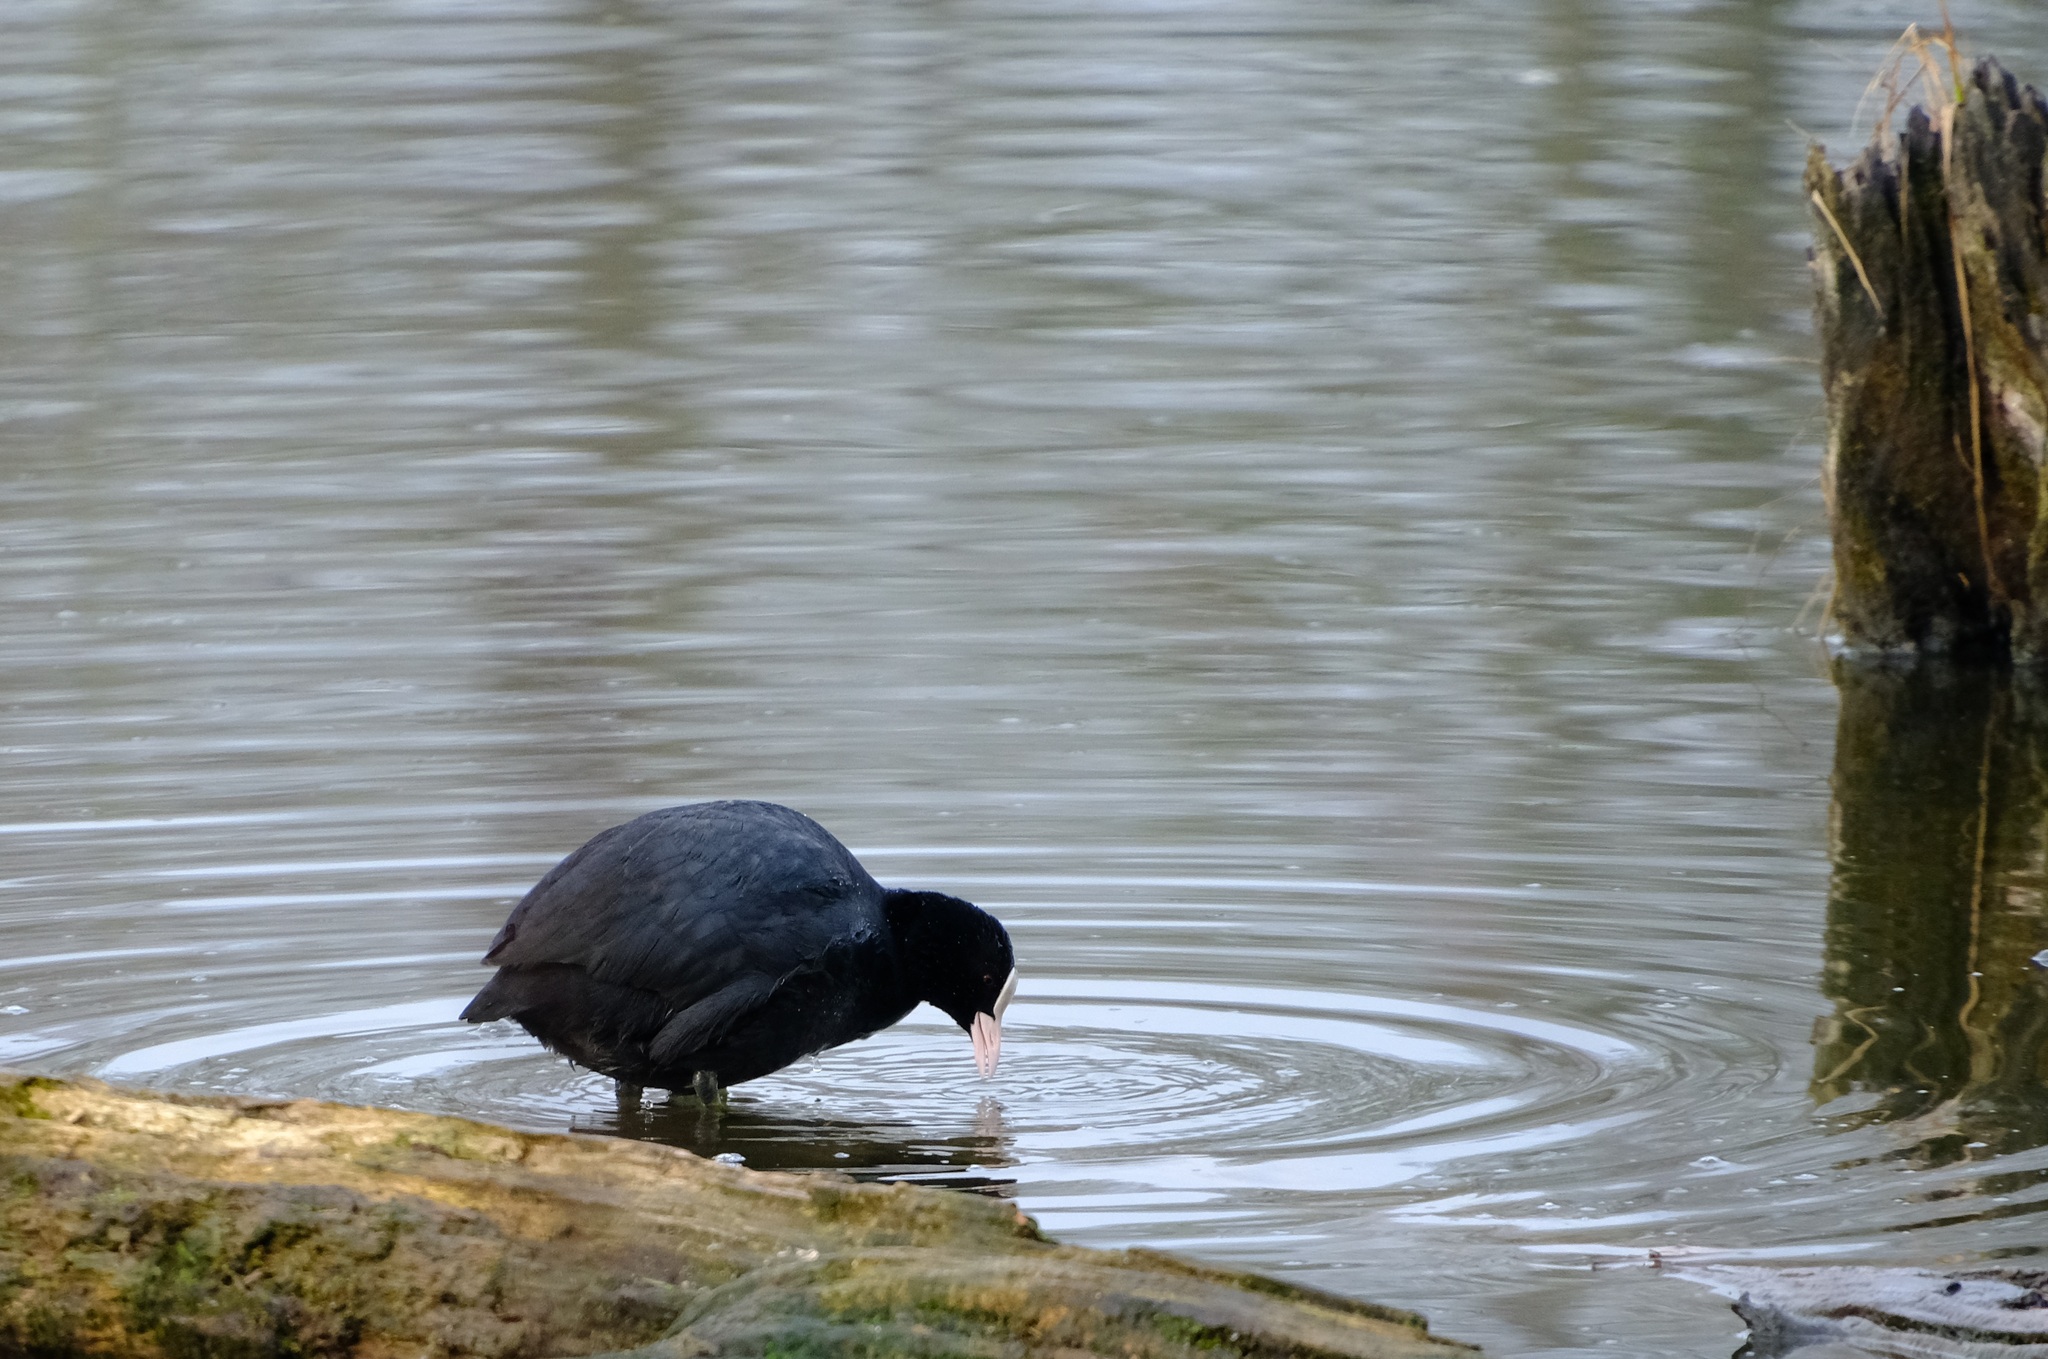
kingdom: Animalia
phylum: Chordata
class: Aves
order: Gruiformes
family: Rallidae
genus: Fulica
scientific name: Fulica atra
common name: Eurasian coot
